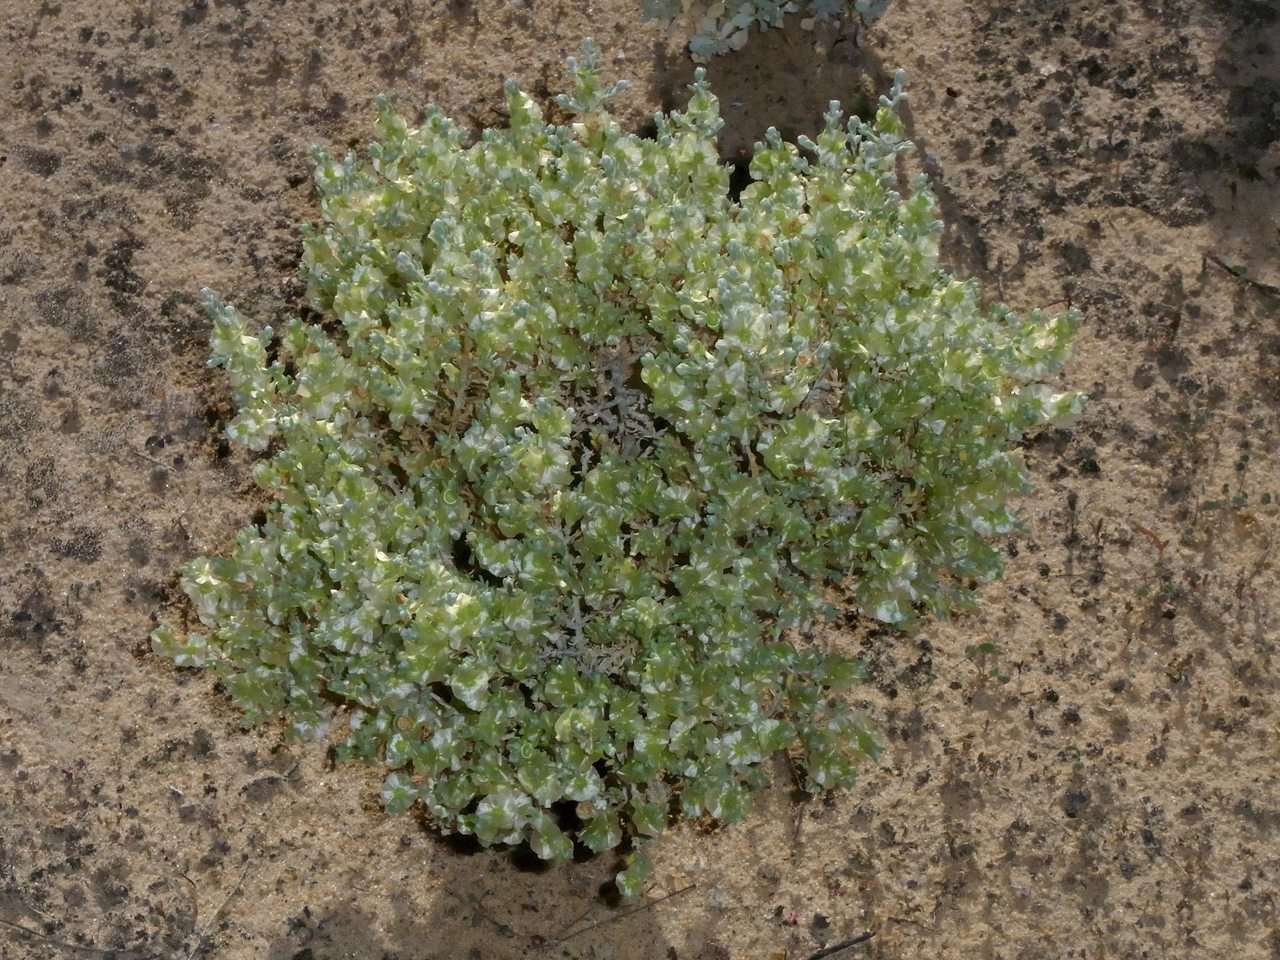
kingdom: Plantae
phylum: Tracheophyta
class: Magnoliopsida
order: Caryophyllales
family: Amaranthaceae
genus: Maireana
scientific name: Maireana appressa
